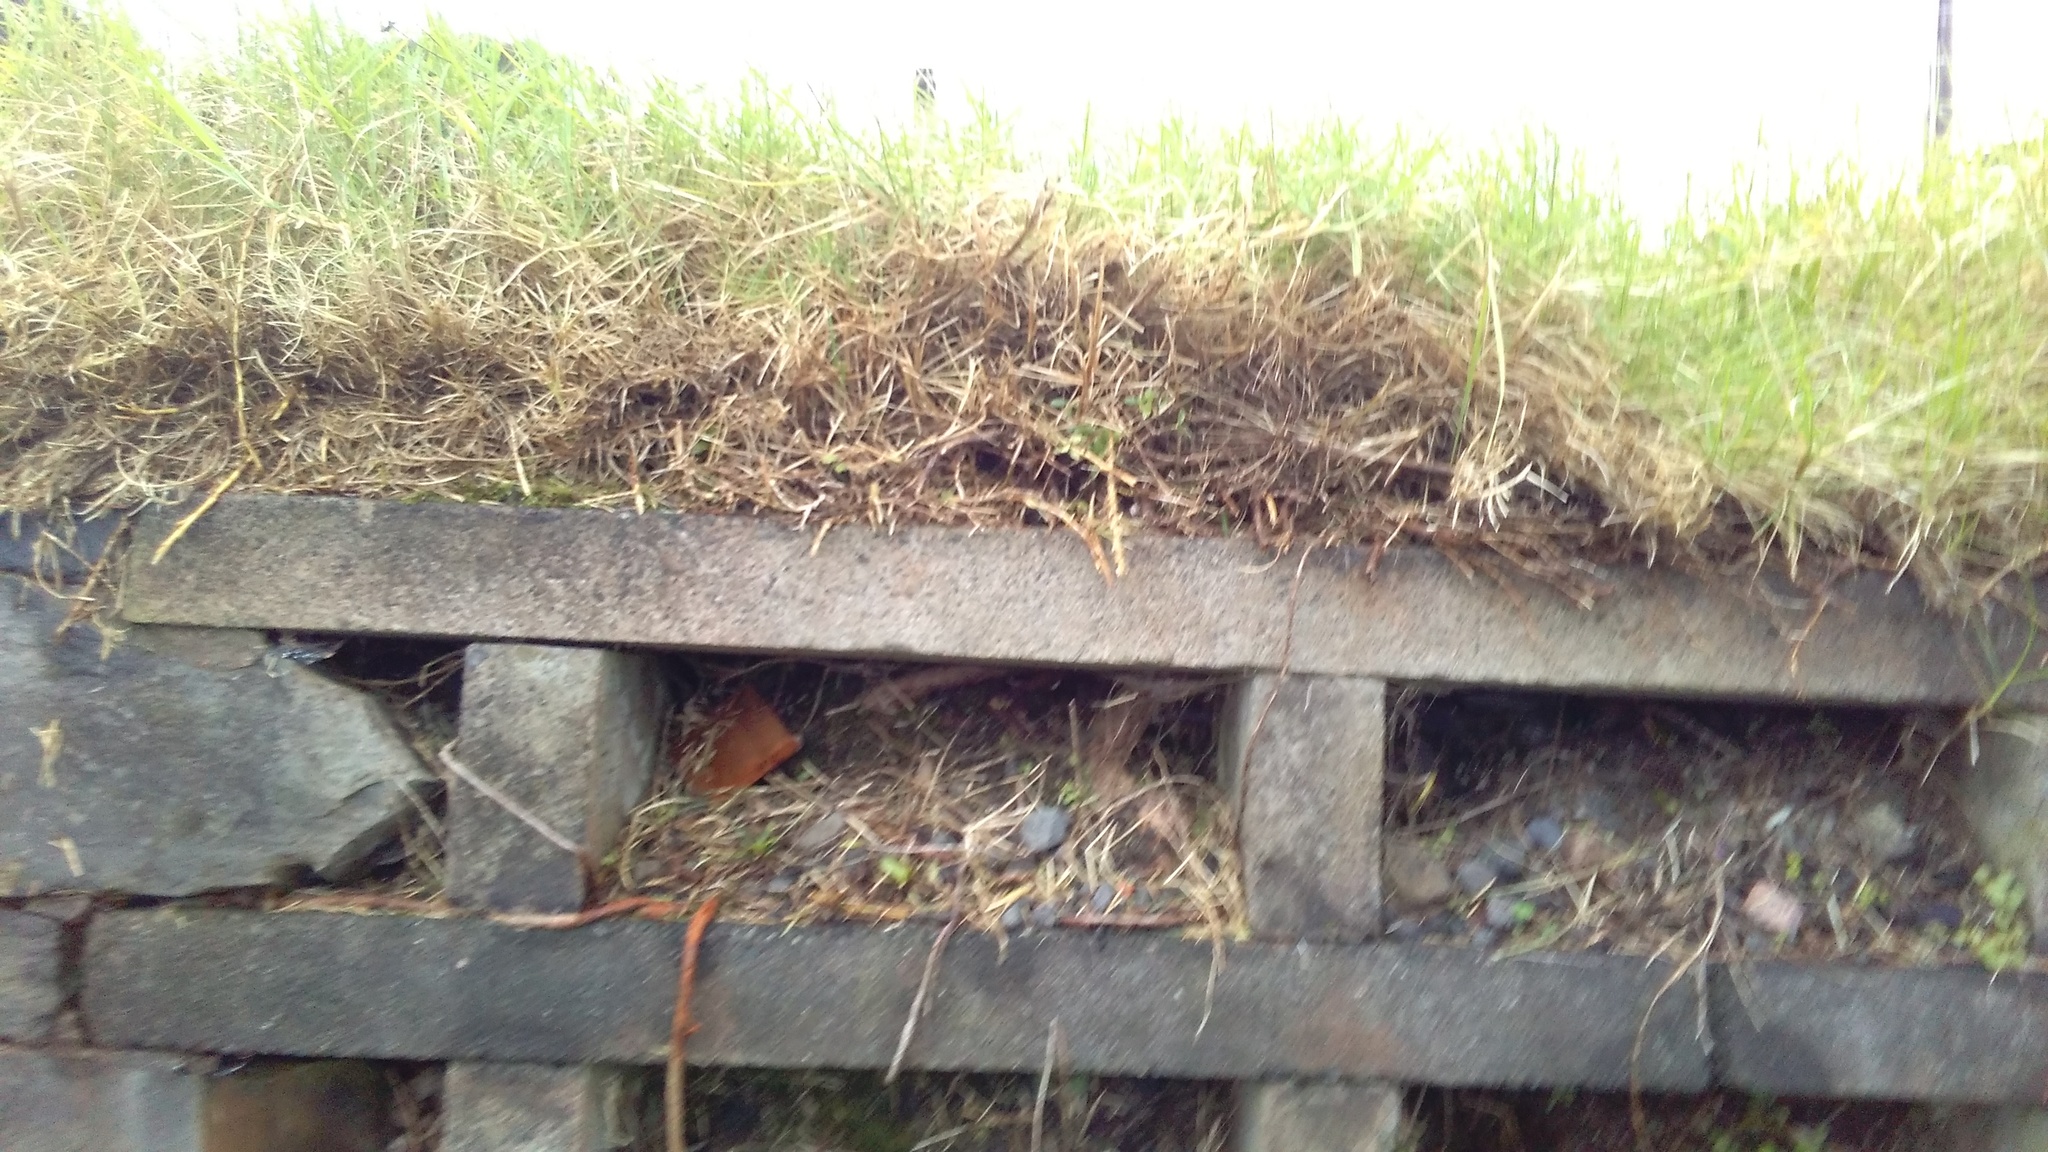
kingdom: Plantae
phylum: Tracheophyta
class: Liliopsida
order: Poales
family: Poaceae
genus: Cenchrus
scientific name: Cenchrus clandestinus
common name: Kikuyugrass
